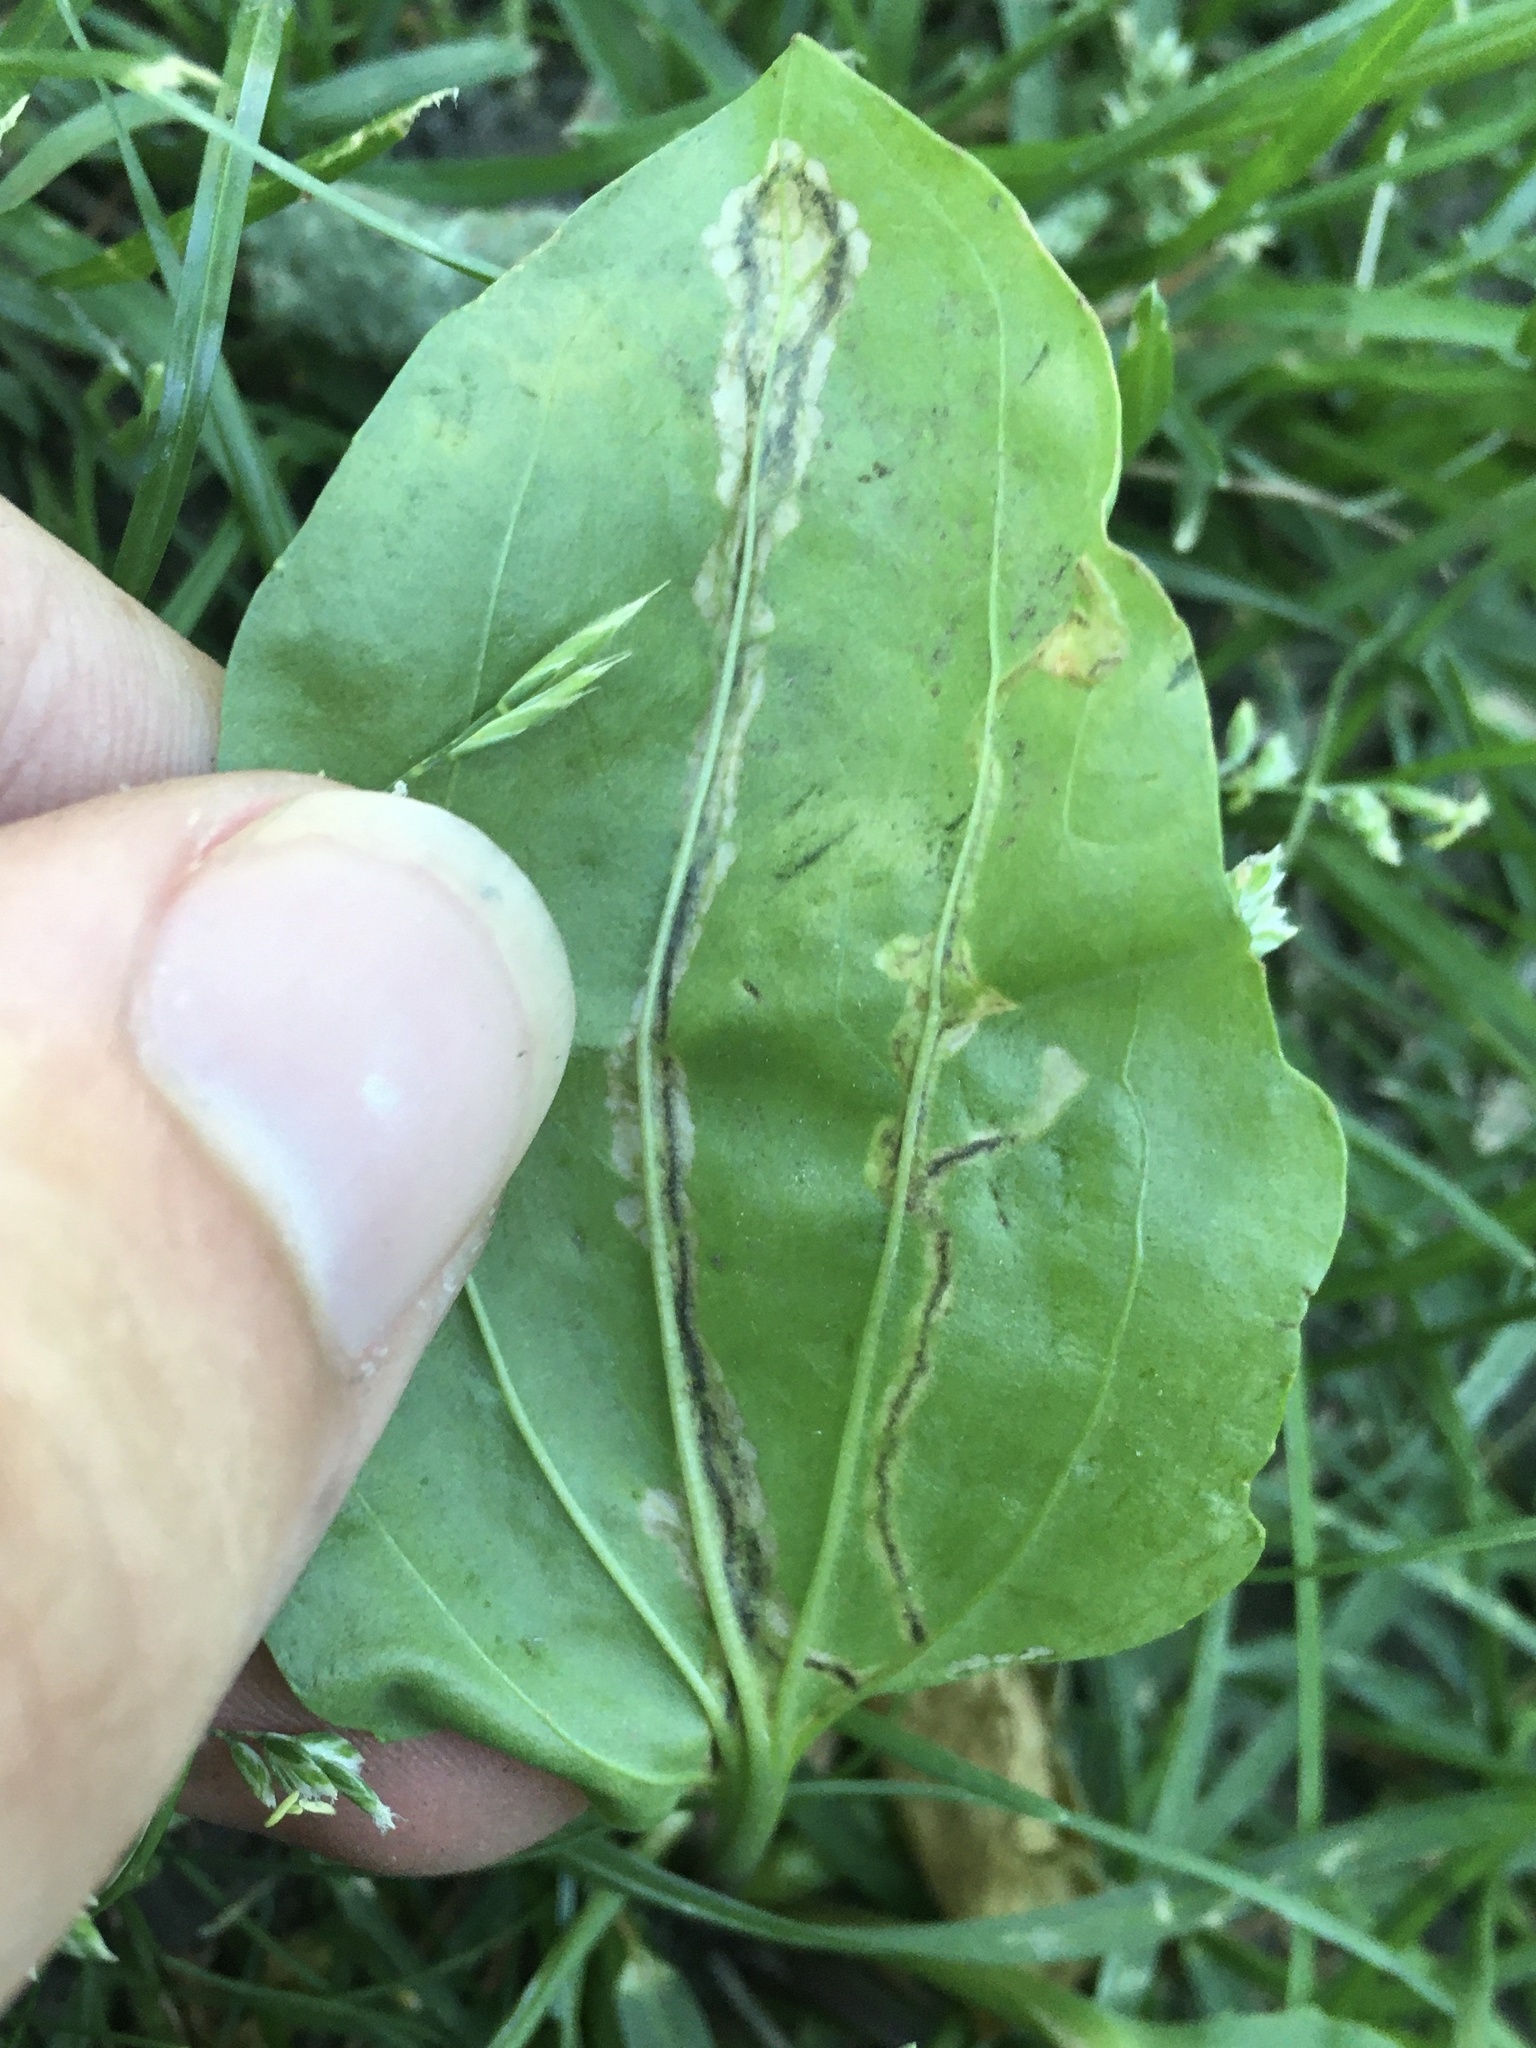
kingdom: Animalia
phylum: Arthropoda
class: Insecta
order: Coleoptera
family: Chrysomelidae
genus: Dibolia
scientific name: Dibolia borealis
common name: Northern plantain flea beetle
